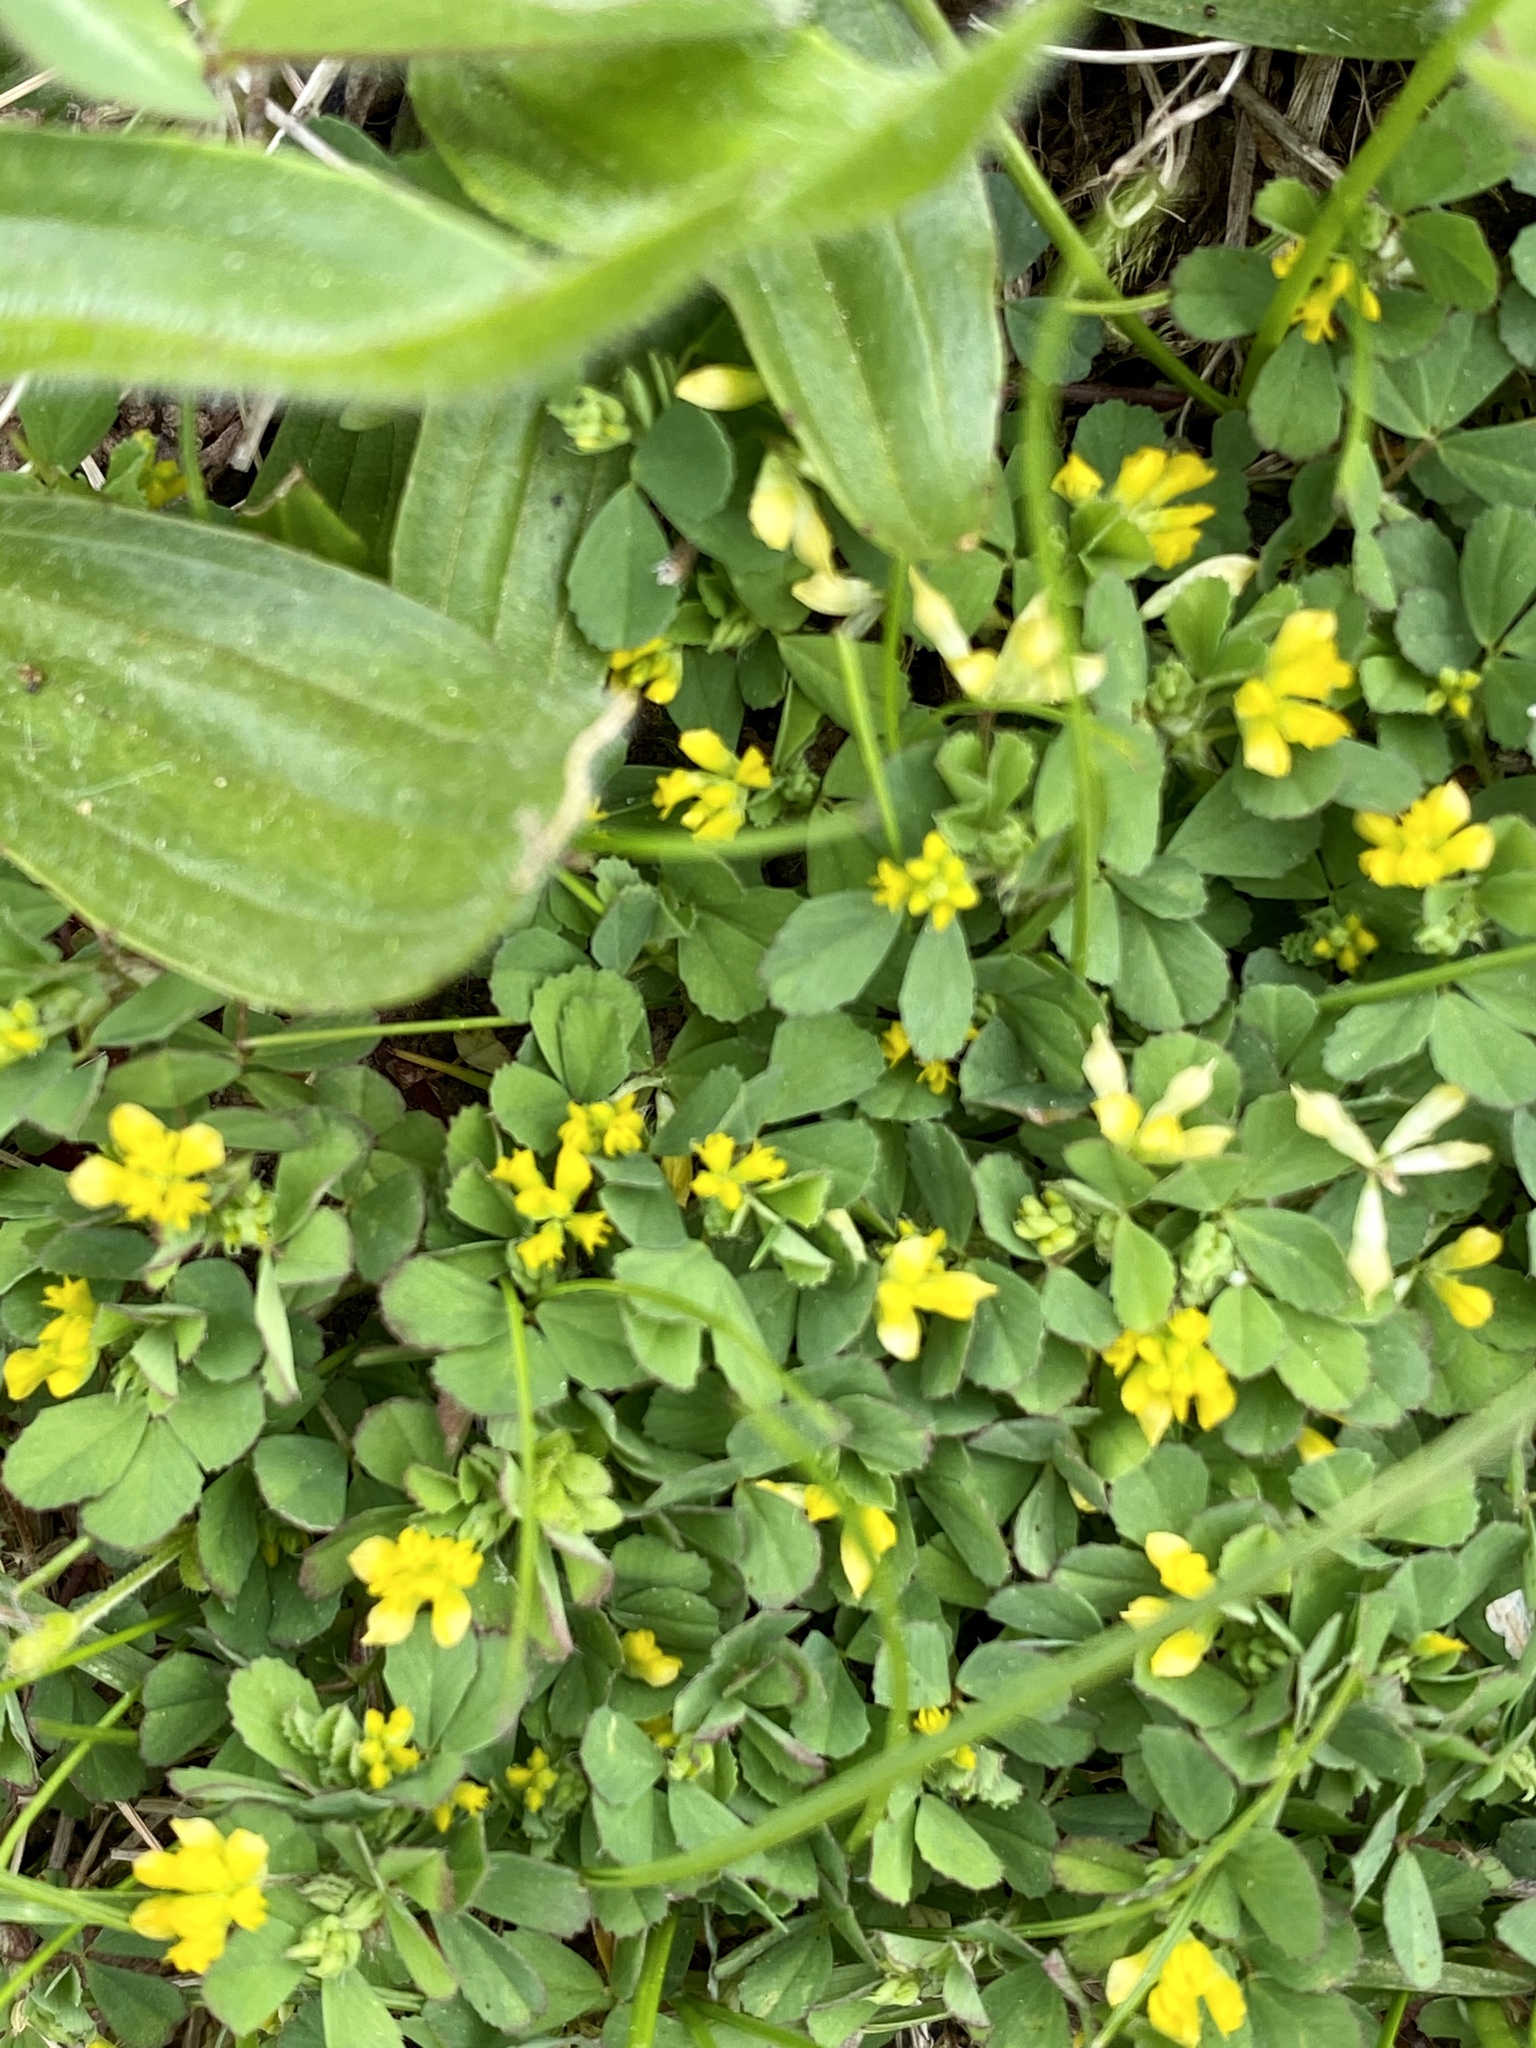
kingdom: Plantae
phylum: Tracheophyta
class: Magnoliopsida
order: Fabales
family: Fabaceae
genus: Trifolium
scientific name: Trifolium dubium
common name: Suckling clover
